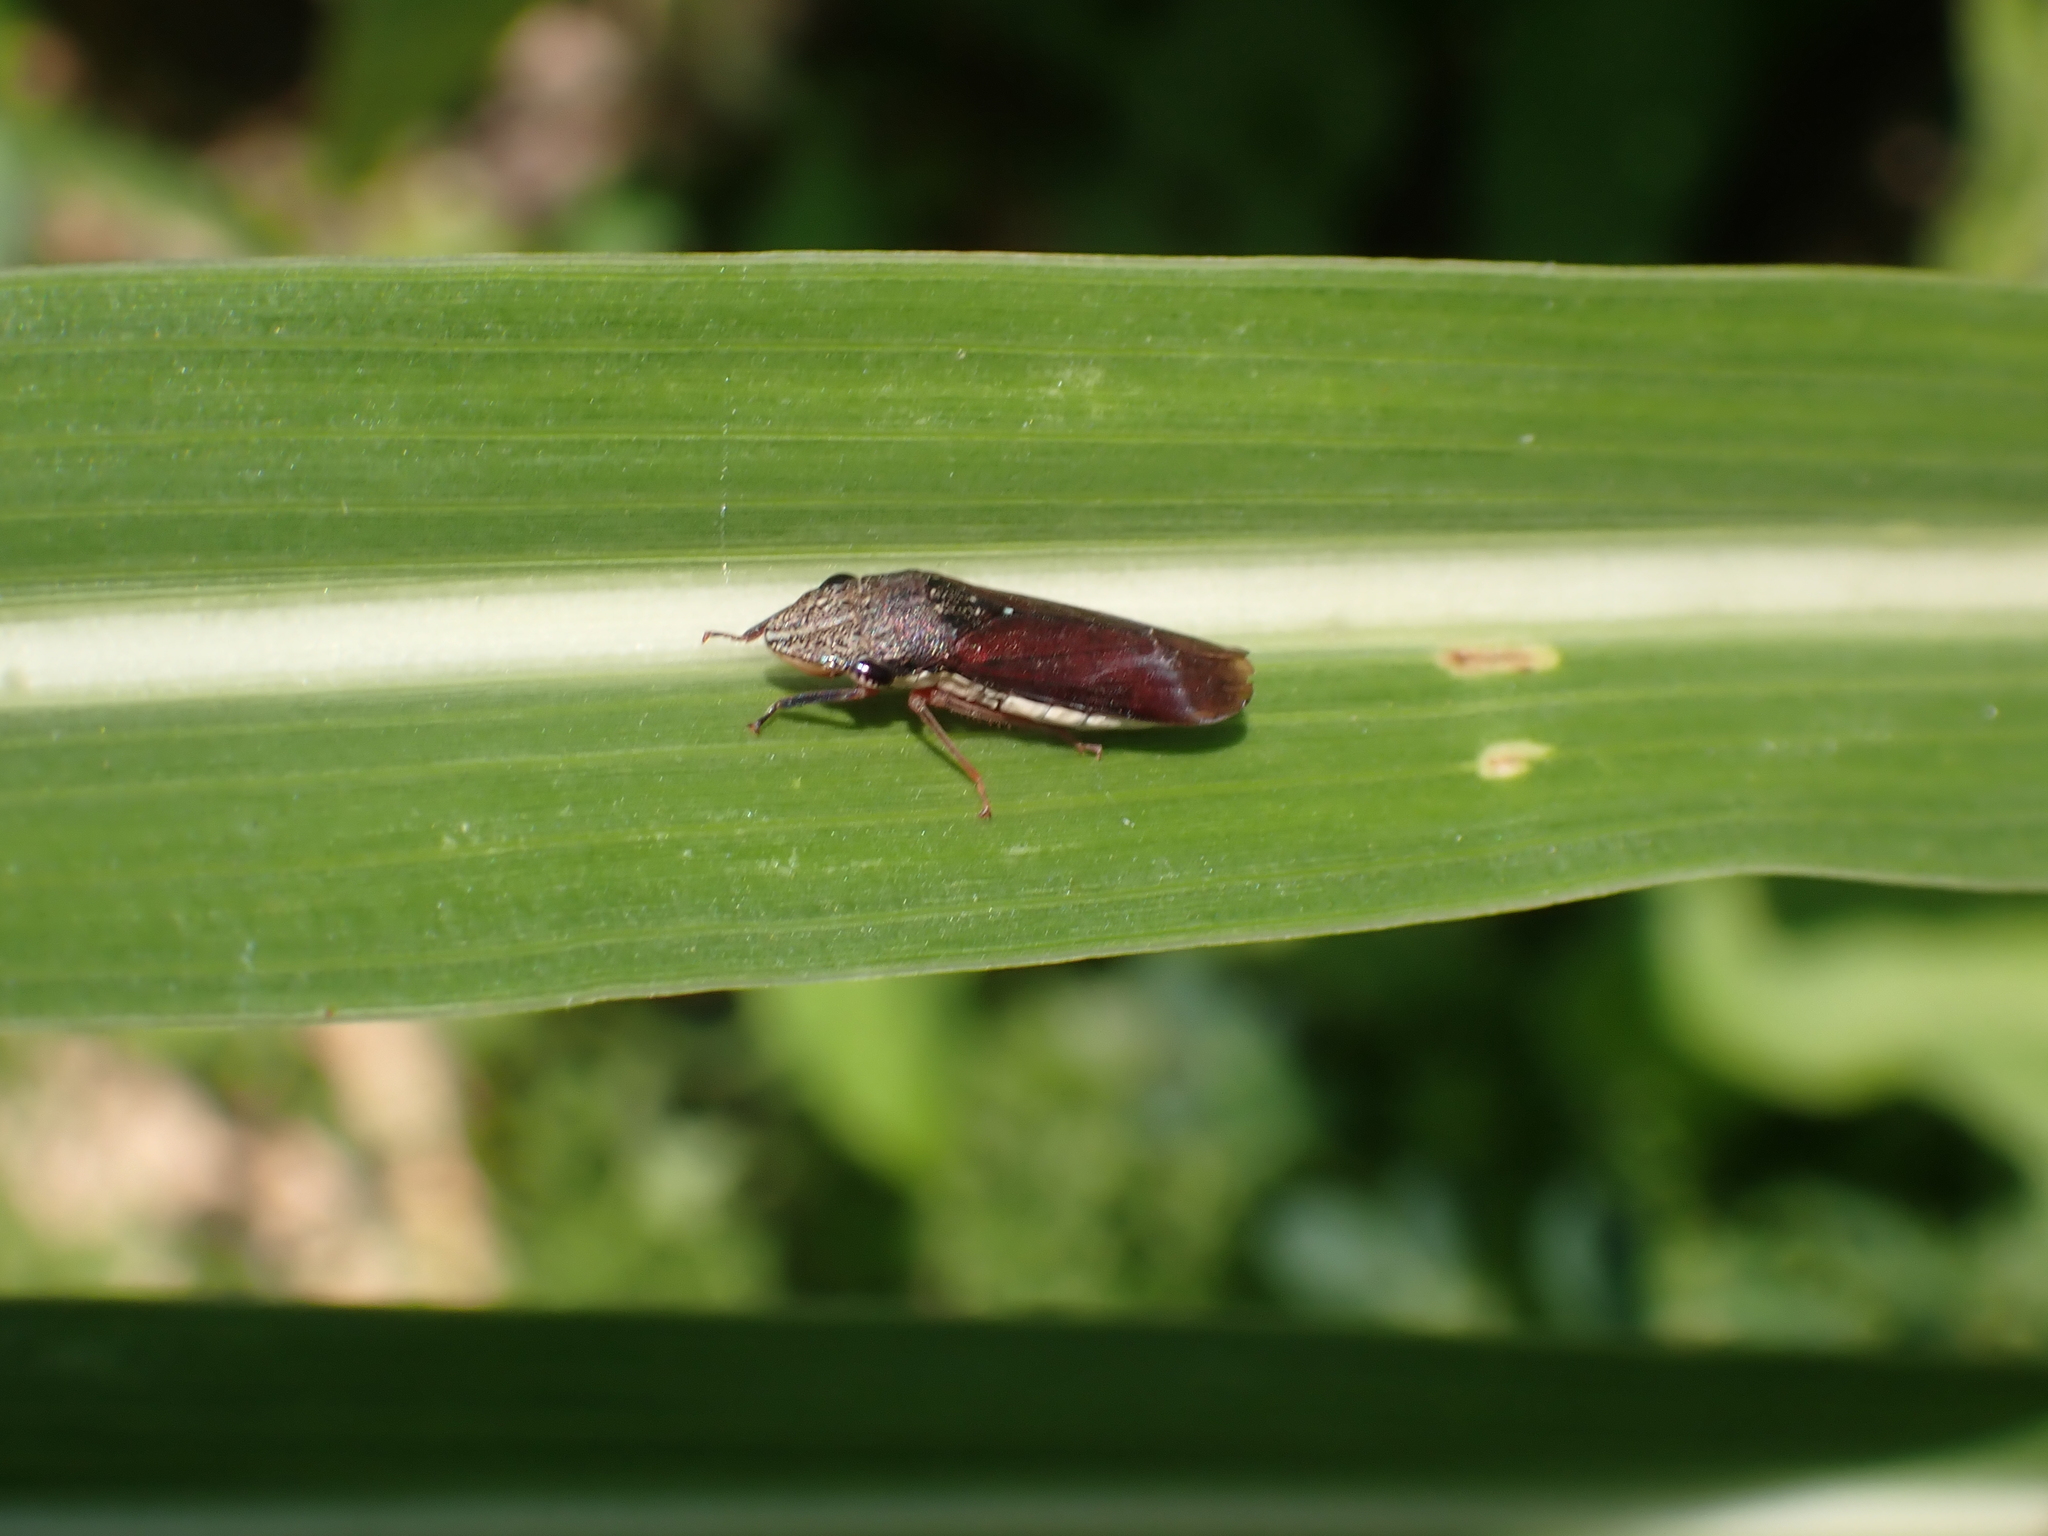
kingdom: Animalia
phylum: Arthropoda
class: Insecta
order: Hemiptera
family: Cicadellidae
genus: Homalodisca
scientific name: Homalodisca insolita
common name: Johnson grass sharpshooter
